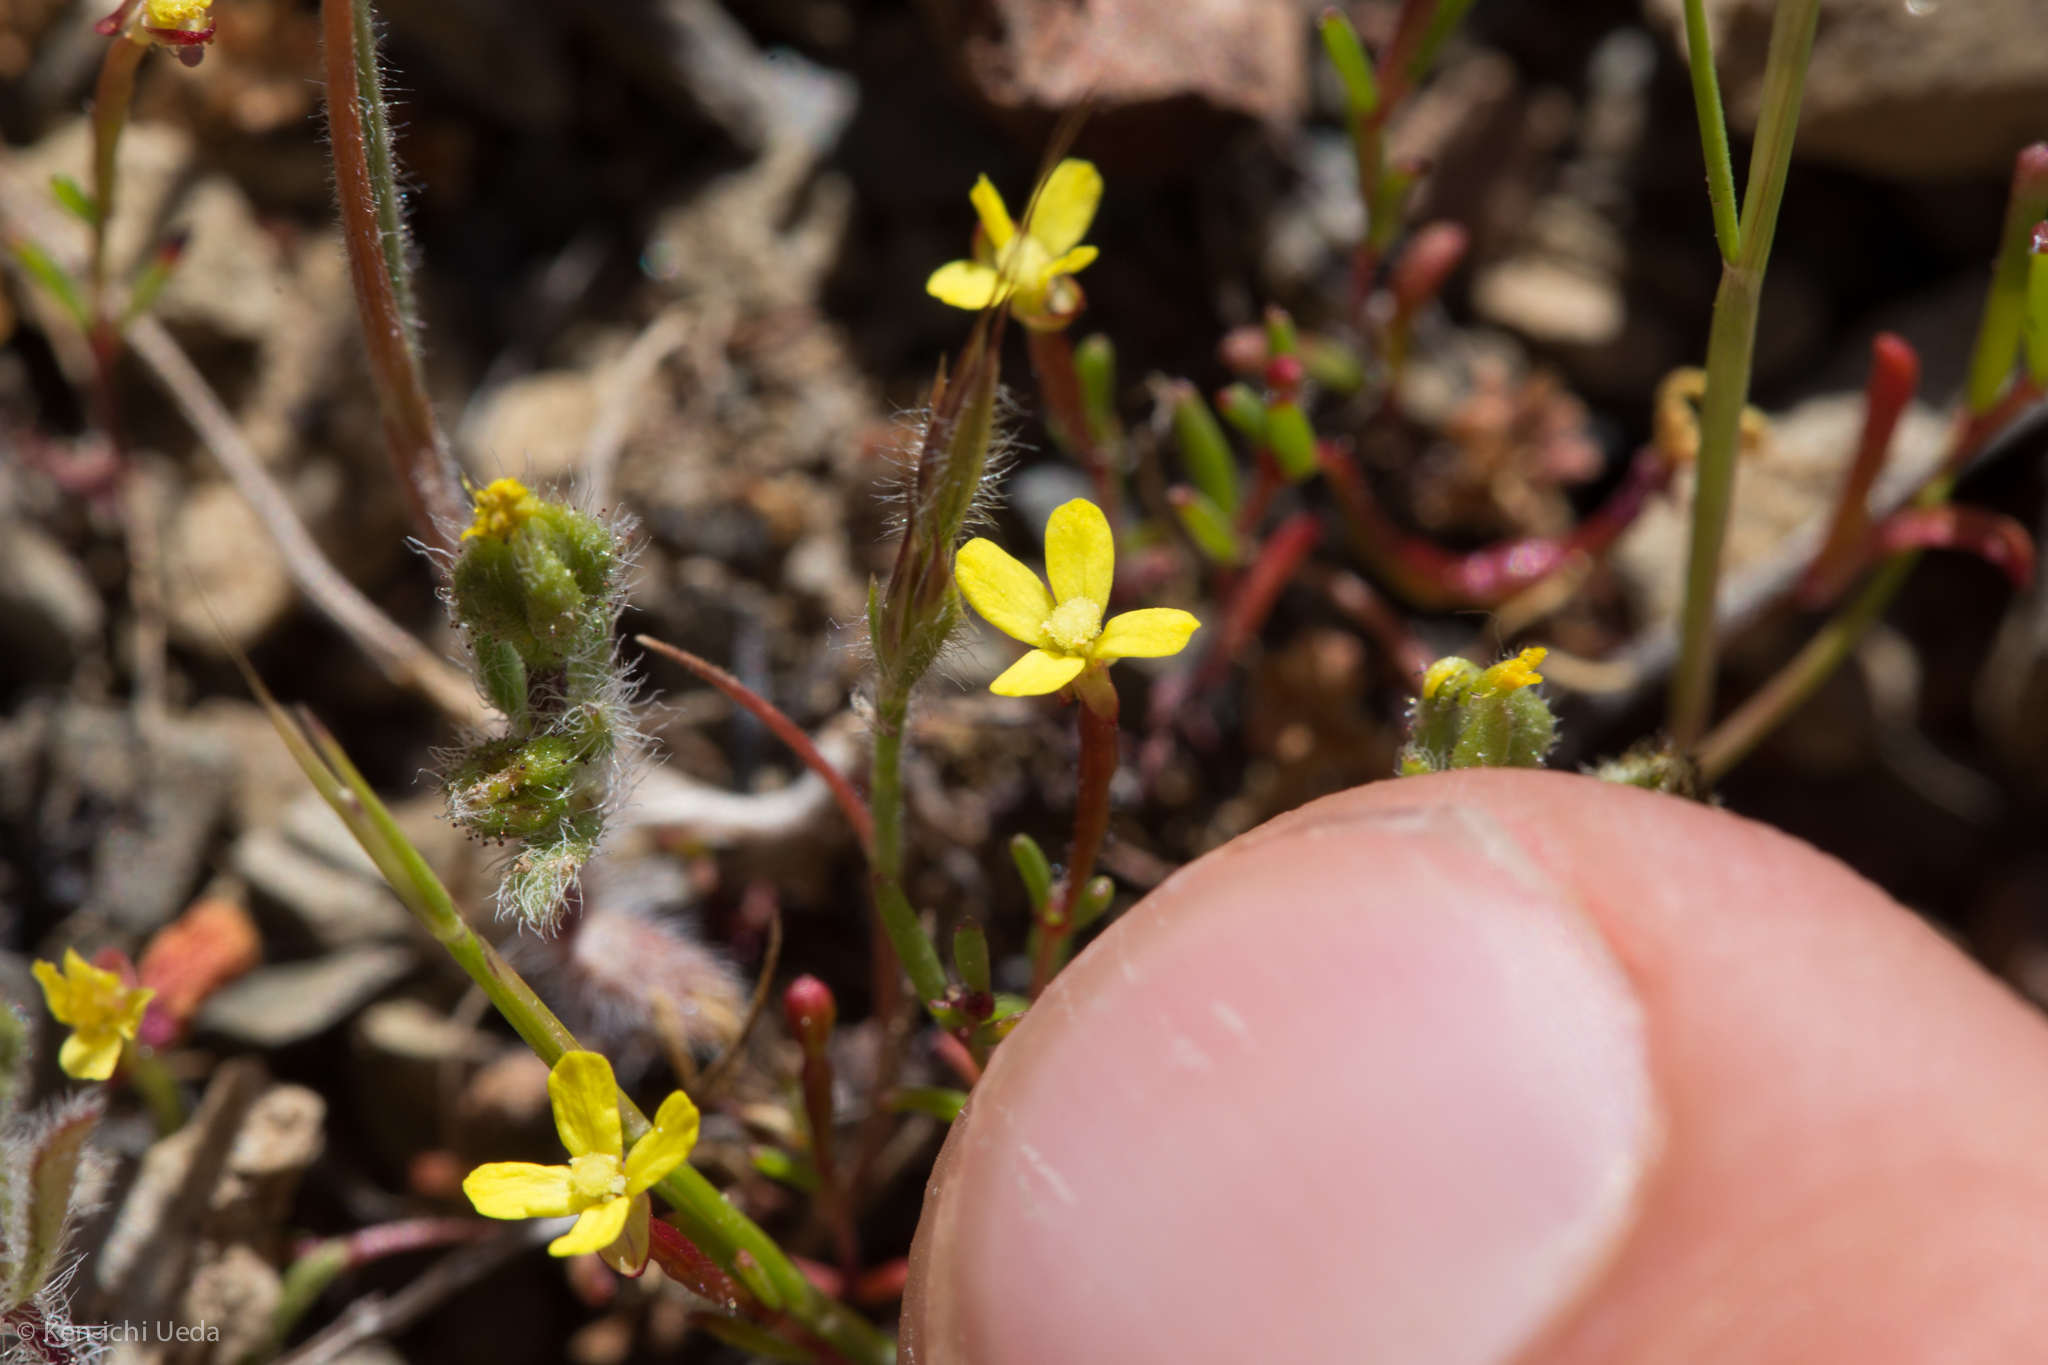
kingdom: Plantae
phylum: Tracheophyta
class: Magnoliopsida
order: Myrtales
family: Onagraceae
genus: Camissonia
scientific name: Camissonia contorta
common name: Contorted suncup
